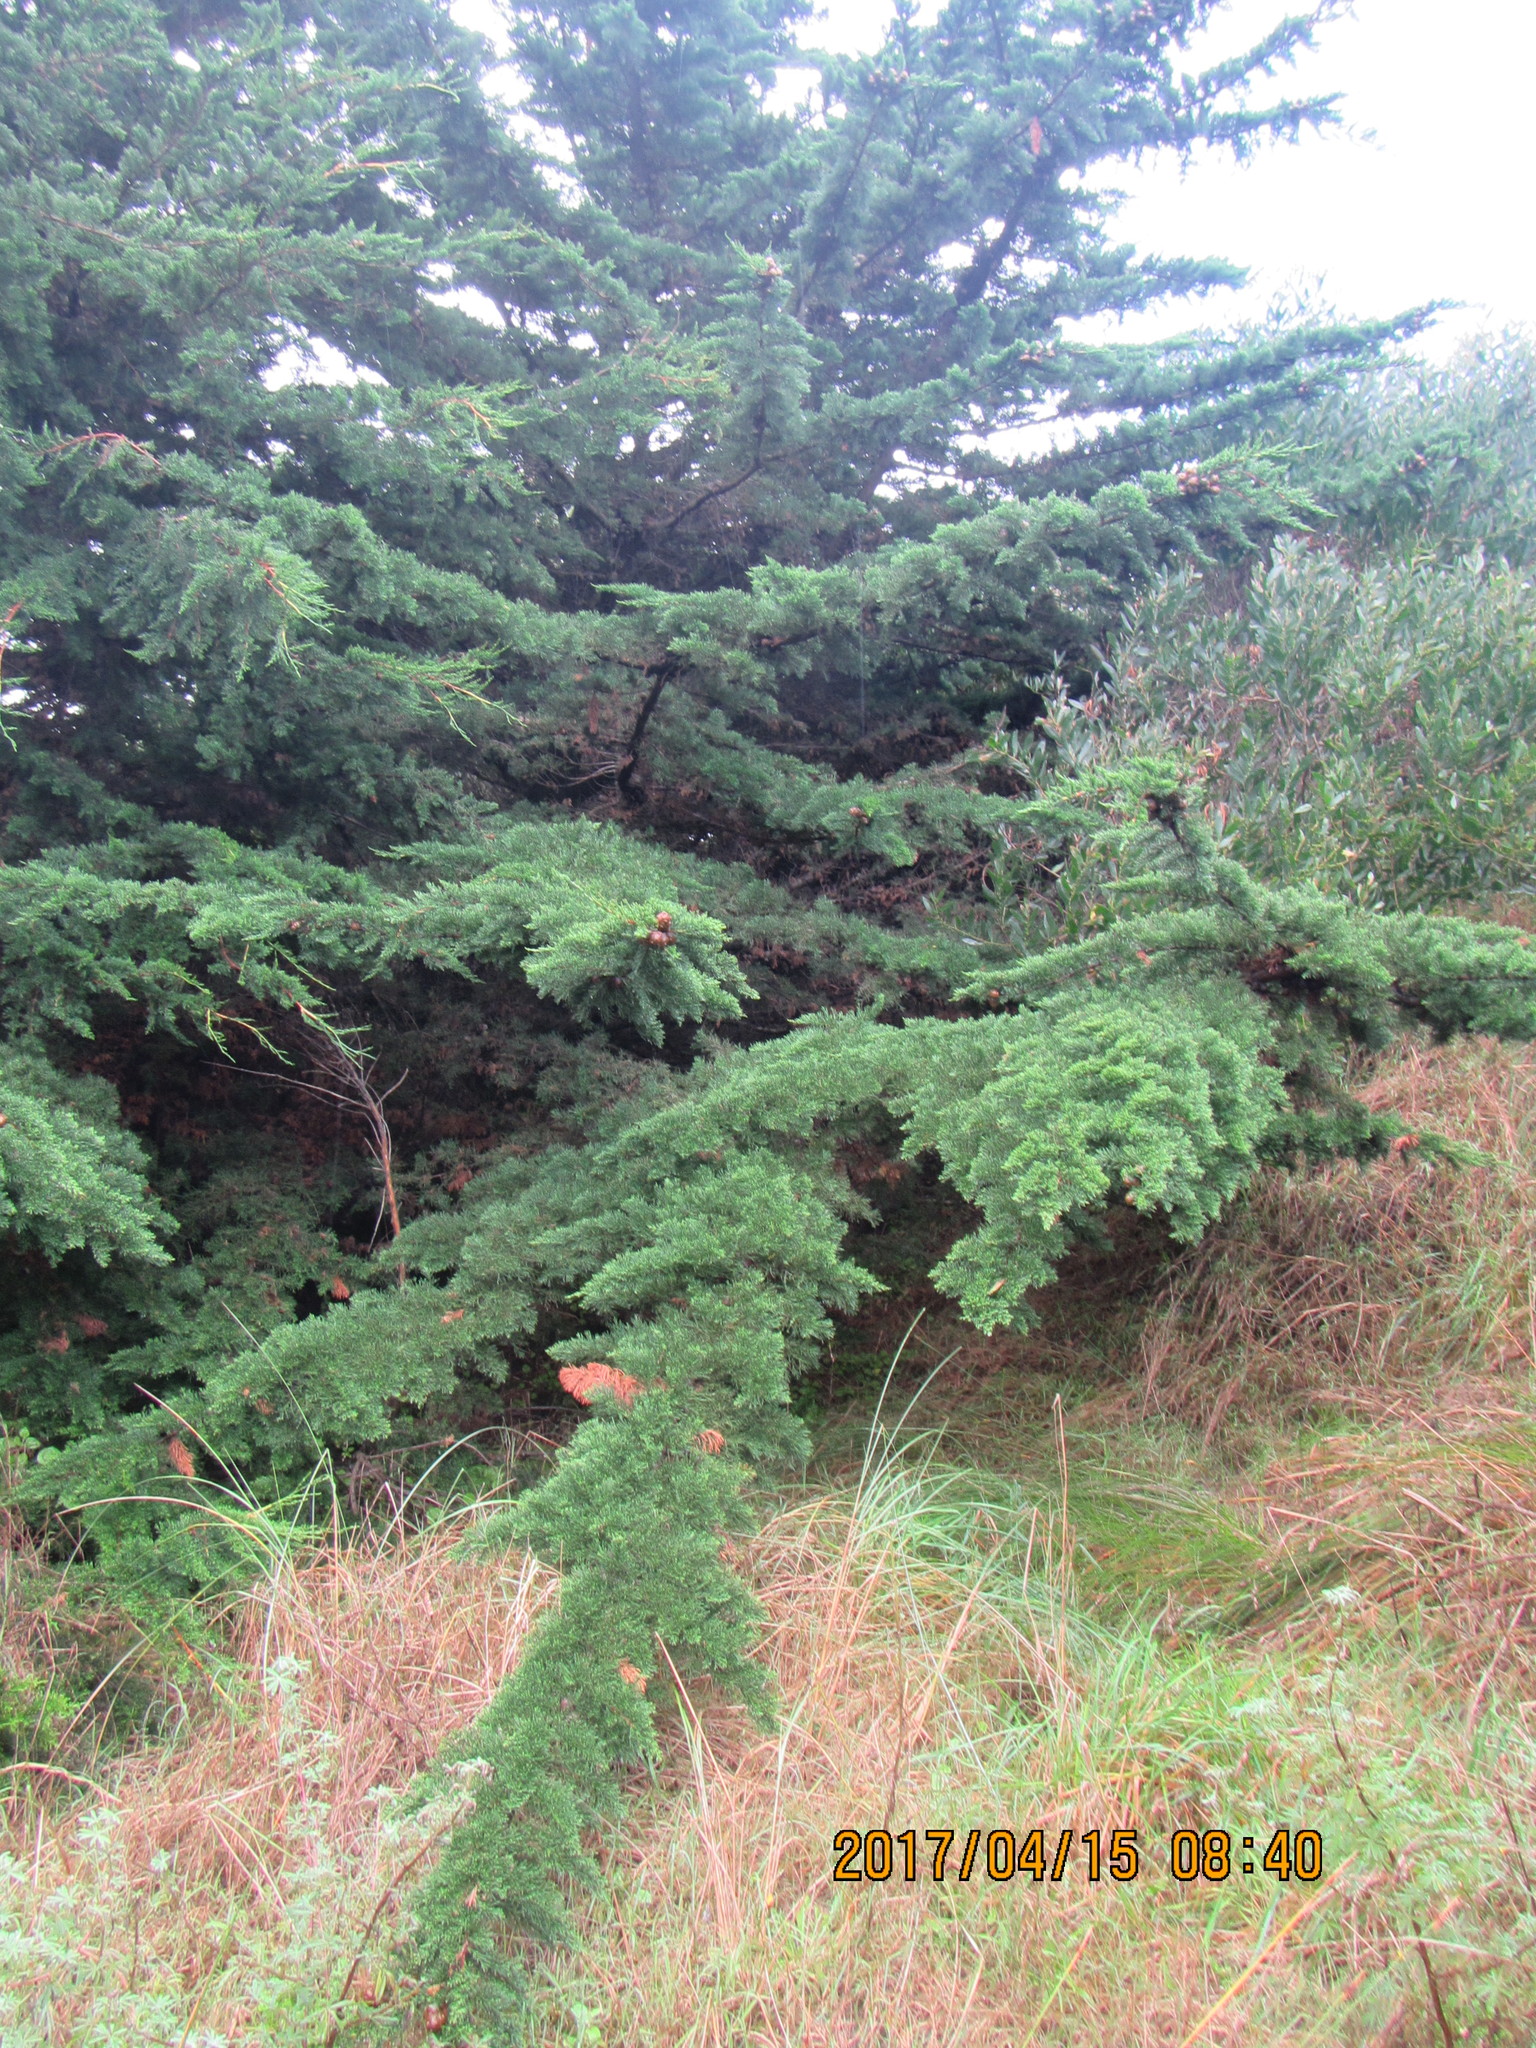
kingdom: Plantae
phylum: Tracheophyta
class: Pinopsida
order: Pinales
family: Cupressaceae
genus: Cupressus
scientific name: Cupressus macrocarpa
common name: Monterey cypress
